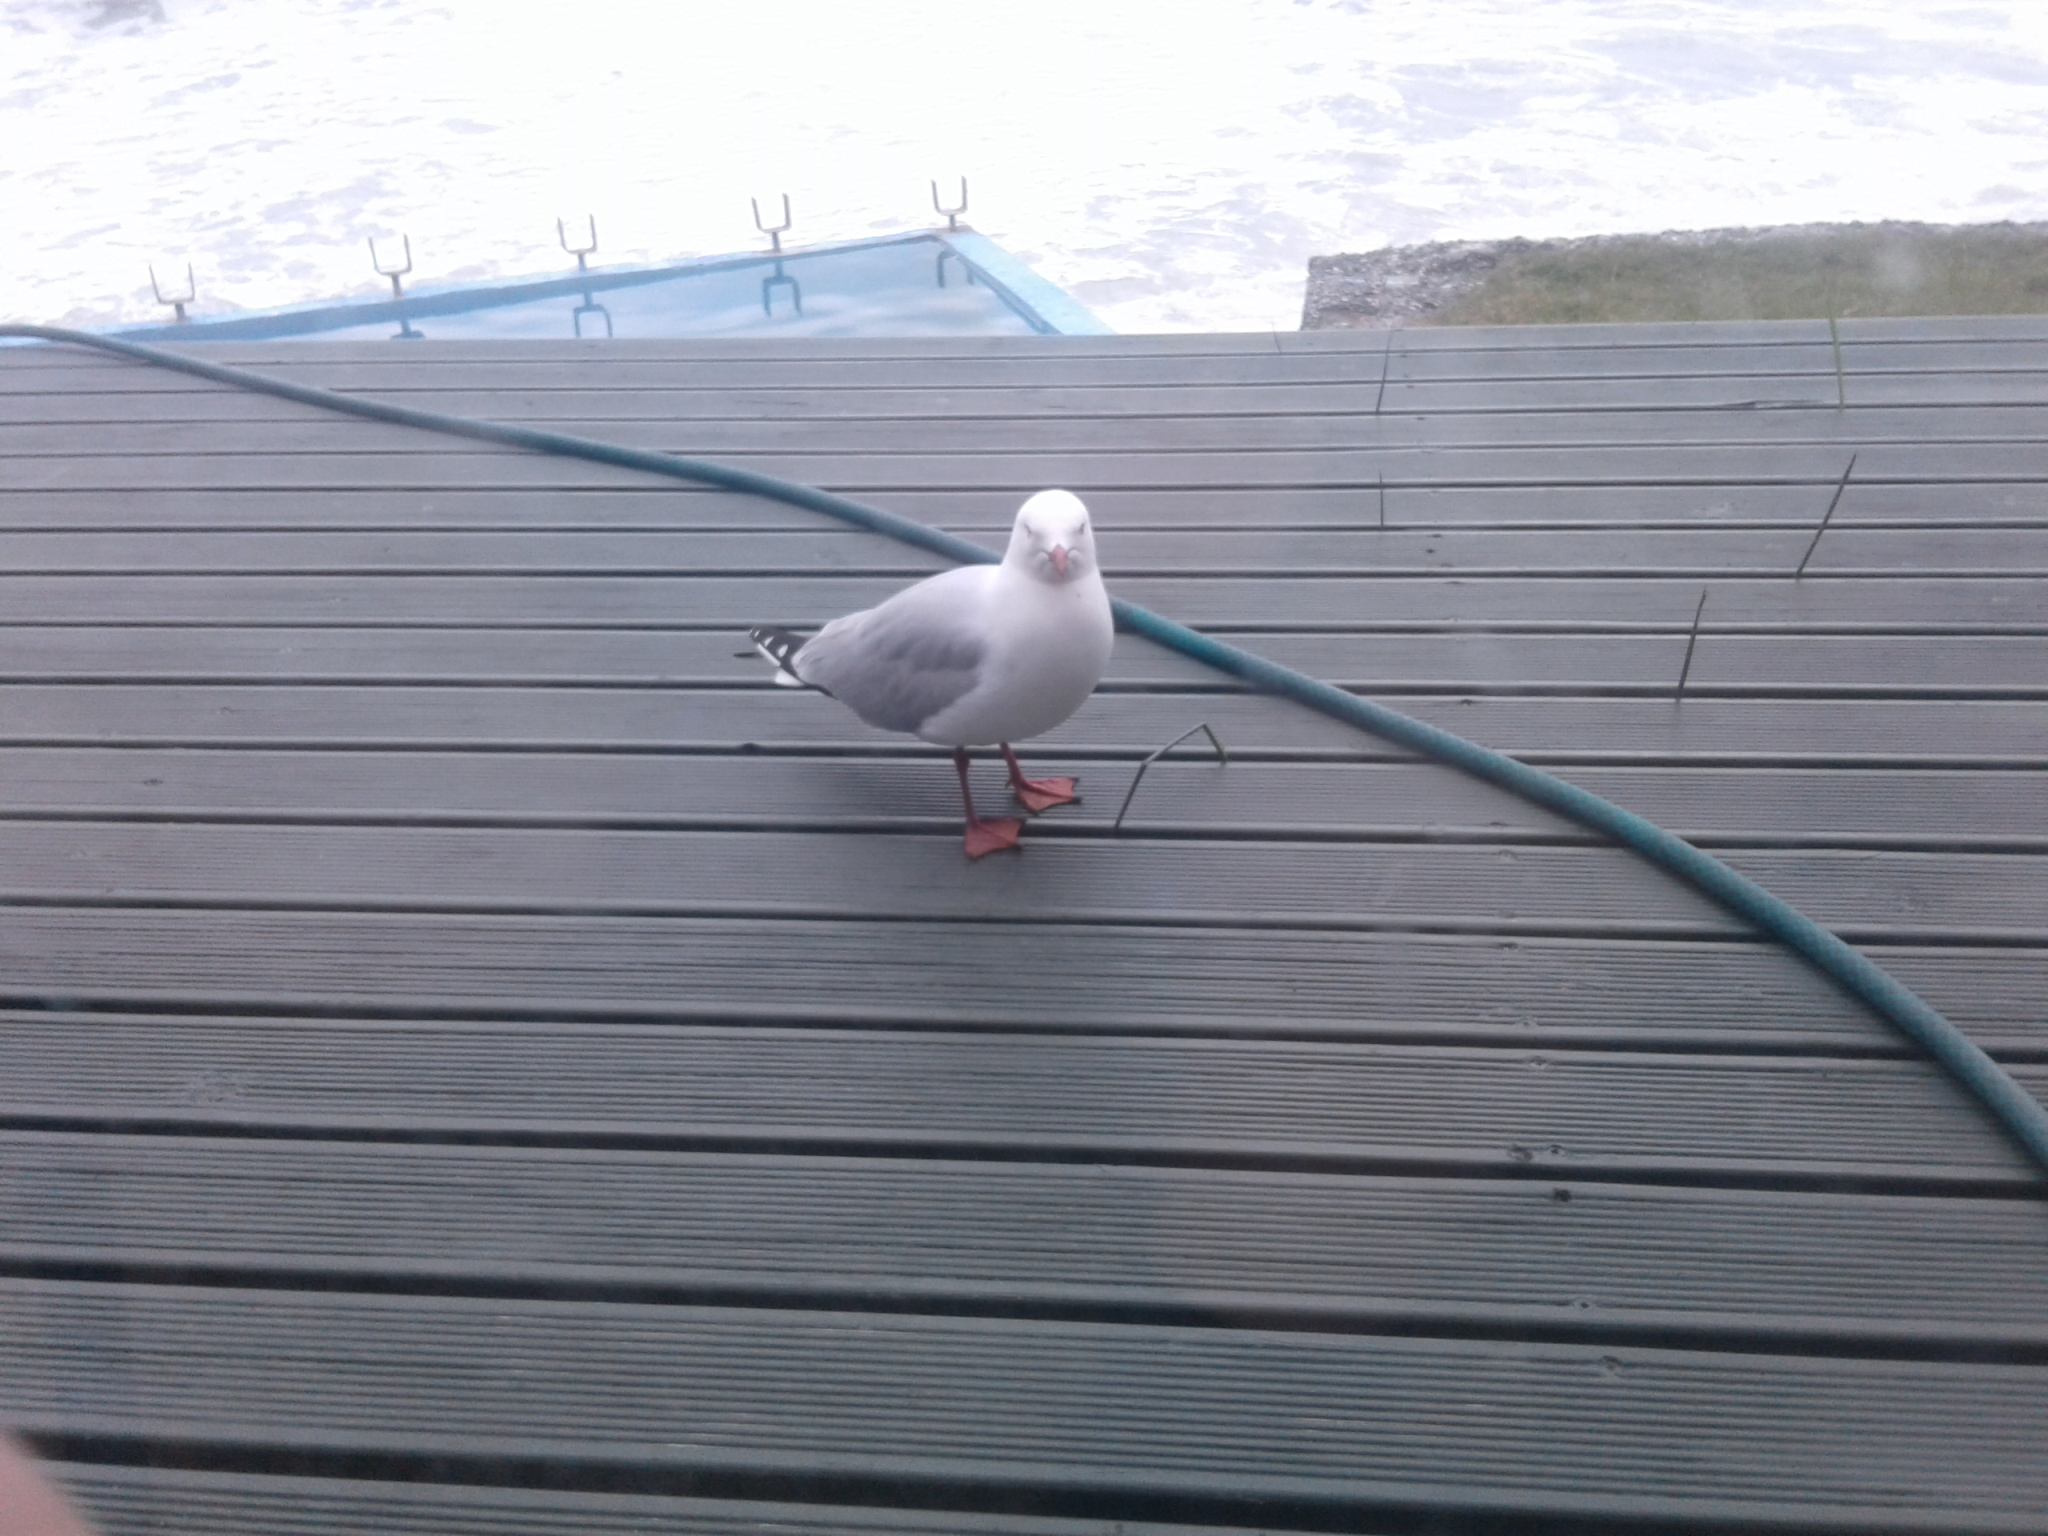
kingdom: Animalia
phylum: Chordata
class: Aves
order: Charadriiformes
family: Laridae
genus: Chroicocephalus
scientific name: Chroicocephalus novaehollandiae
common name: Silver gull
